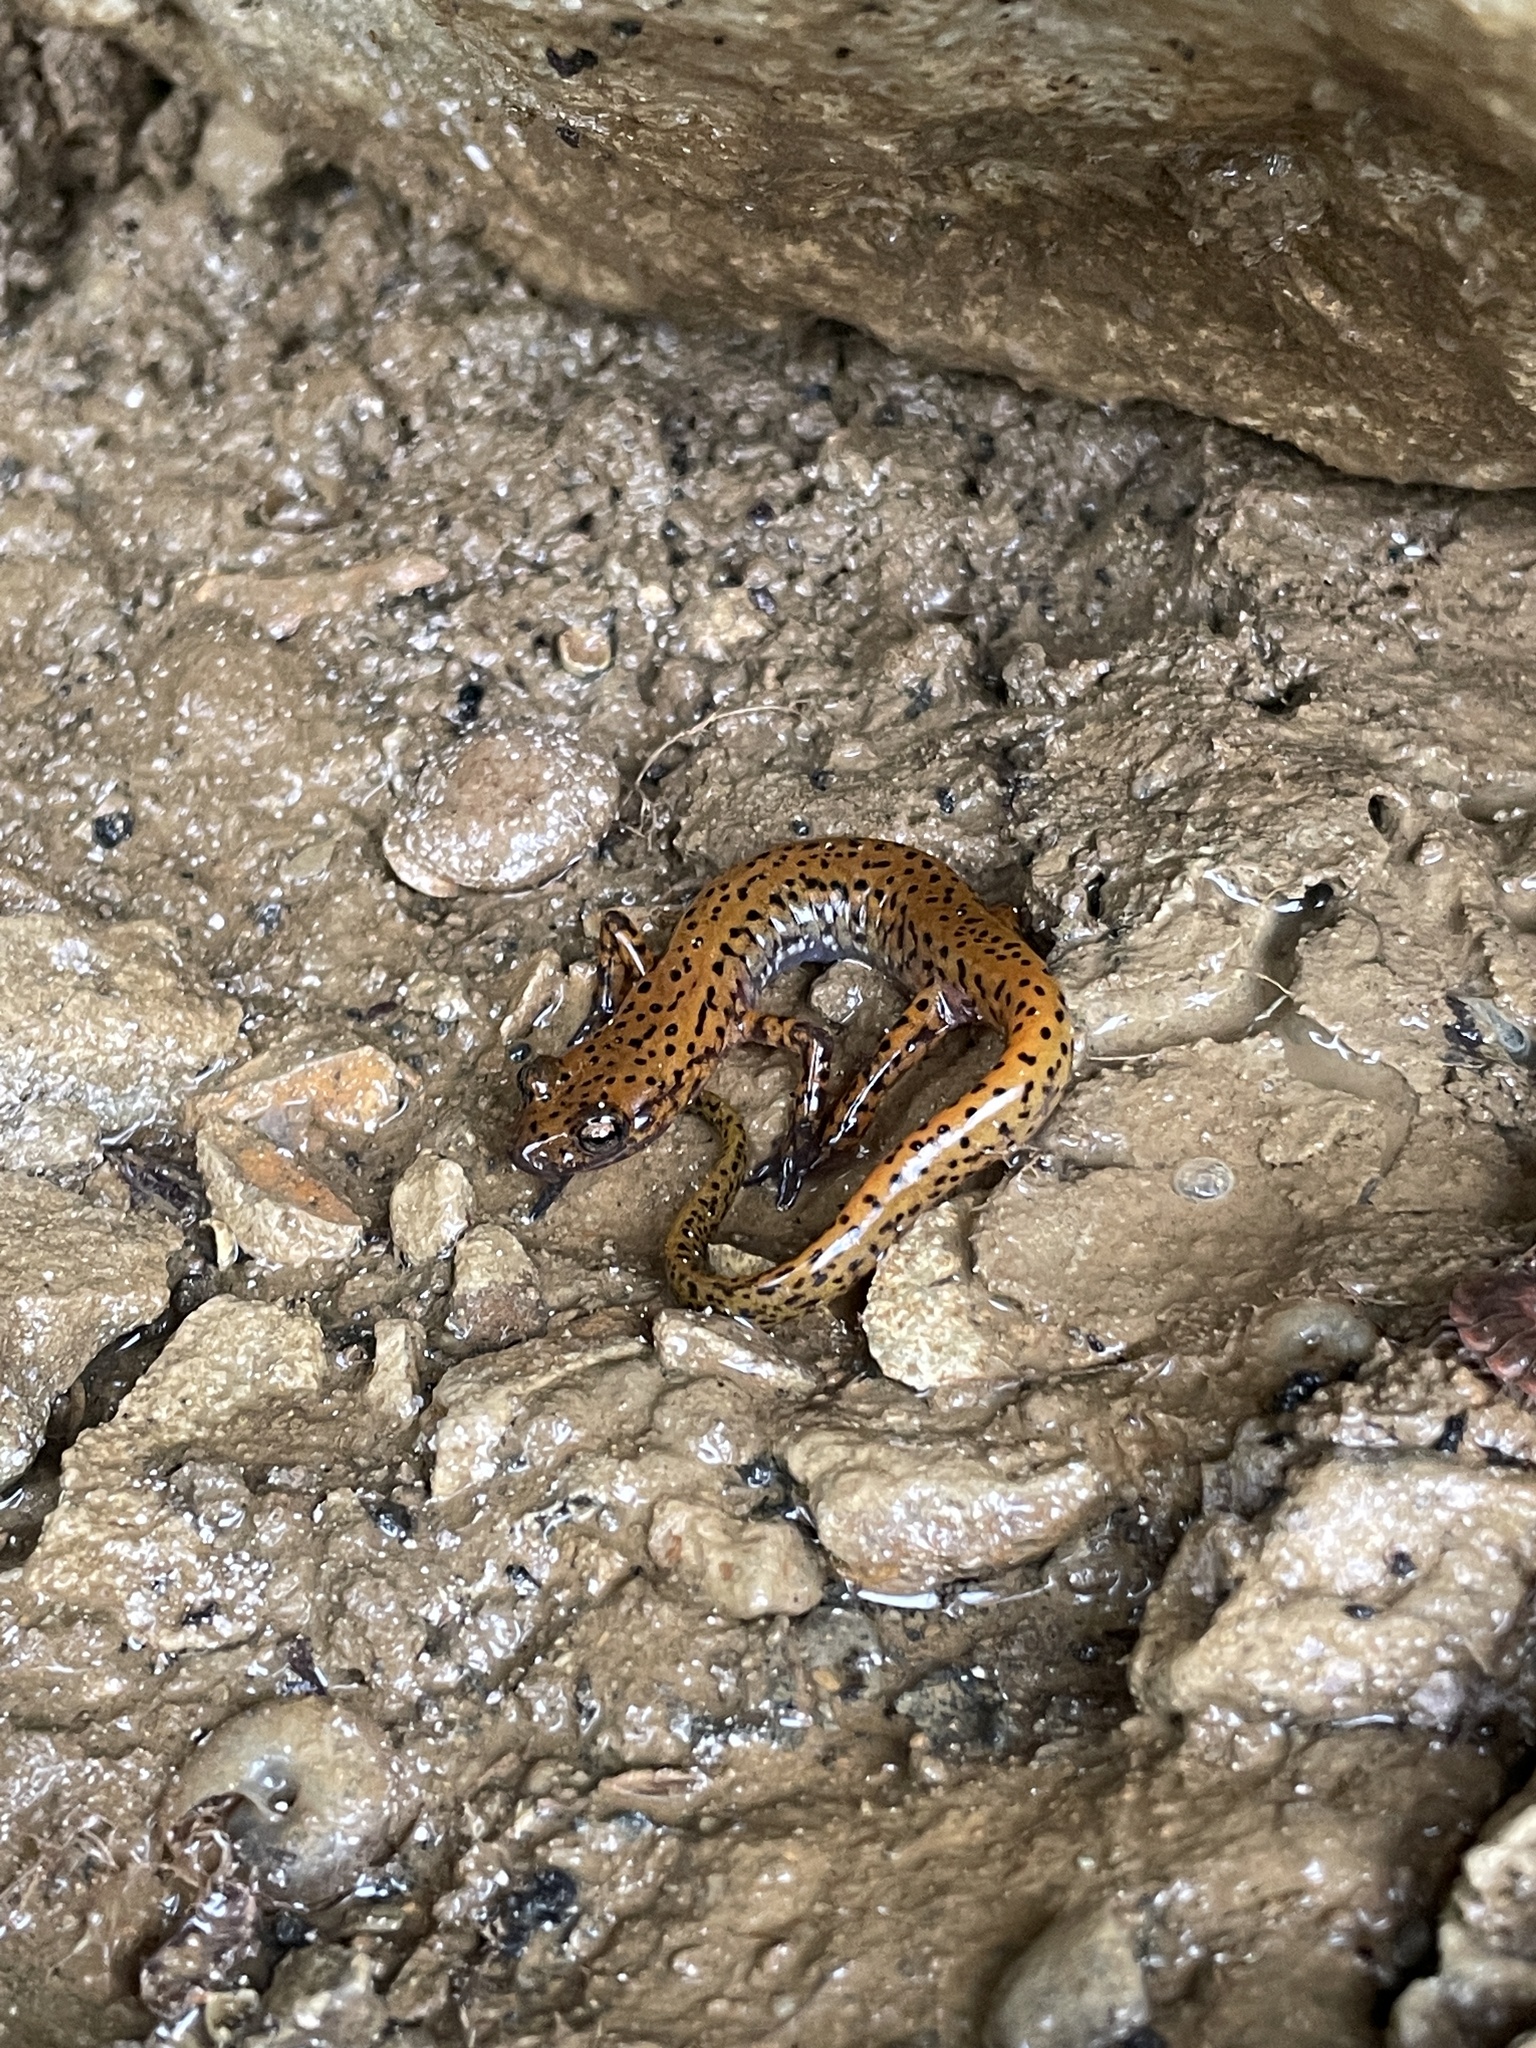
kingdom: Animalia
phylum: Chordata
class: Amphibia
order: Caudata
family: Plethodontidae
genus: Eurycea
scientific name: Eurycea lucifuga
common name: Cave salamander
